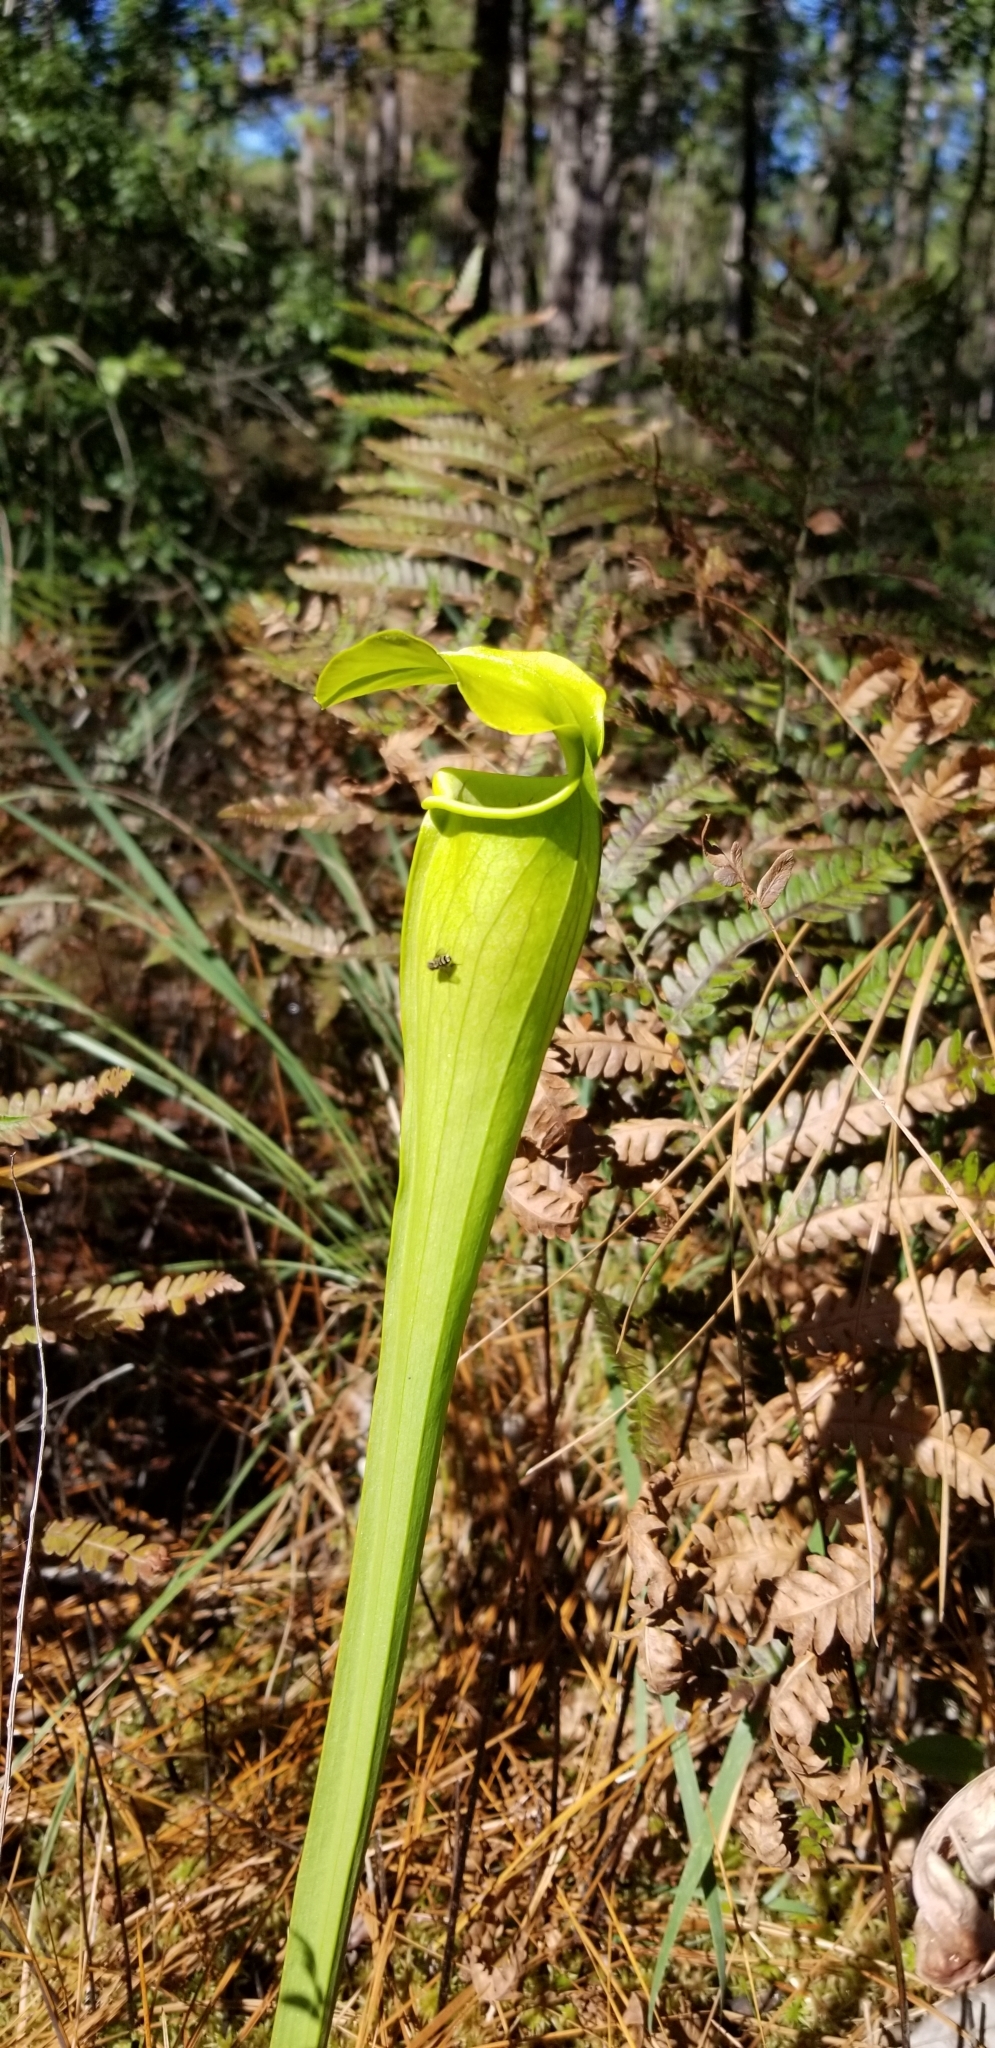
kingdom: Plantae
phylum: Tracheophyta
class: Magnoliopsida
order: Ericales
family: Sarraceniaceae
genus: Sarracenia
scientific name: Sarracenia alata
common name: Yellow trumpets
